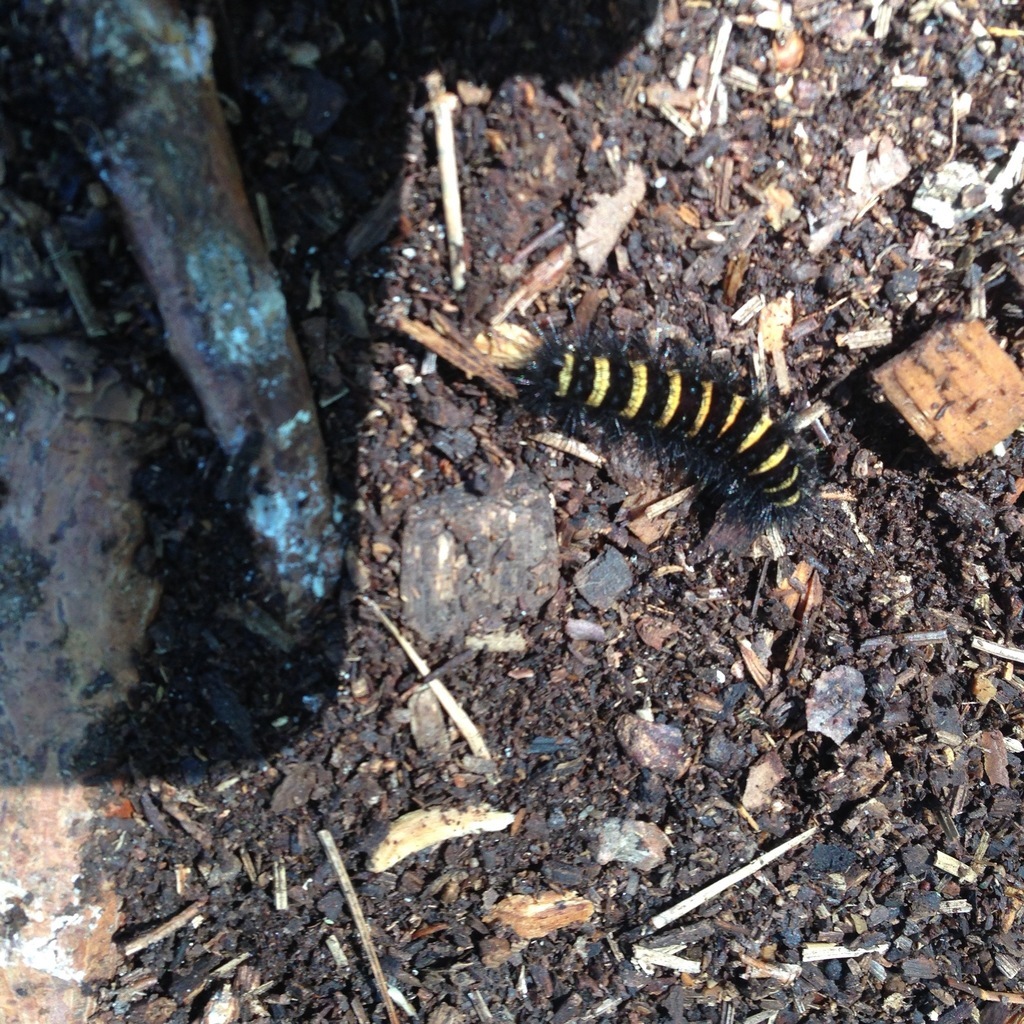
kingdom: Animalia
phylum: Arthropoda
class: Insecta
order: Lepidoptera
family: Erebidae
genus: Spilosoma
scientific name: Spilosoma congrua
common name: Agreeable tiger moth
